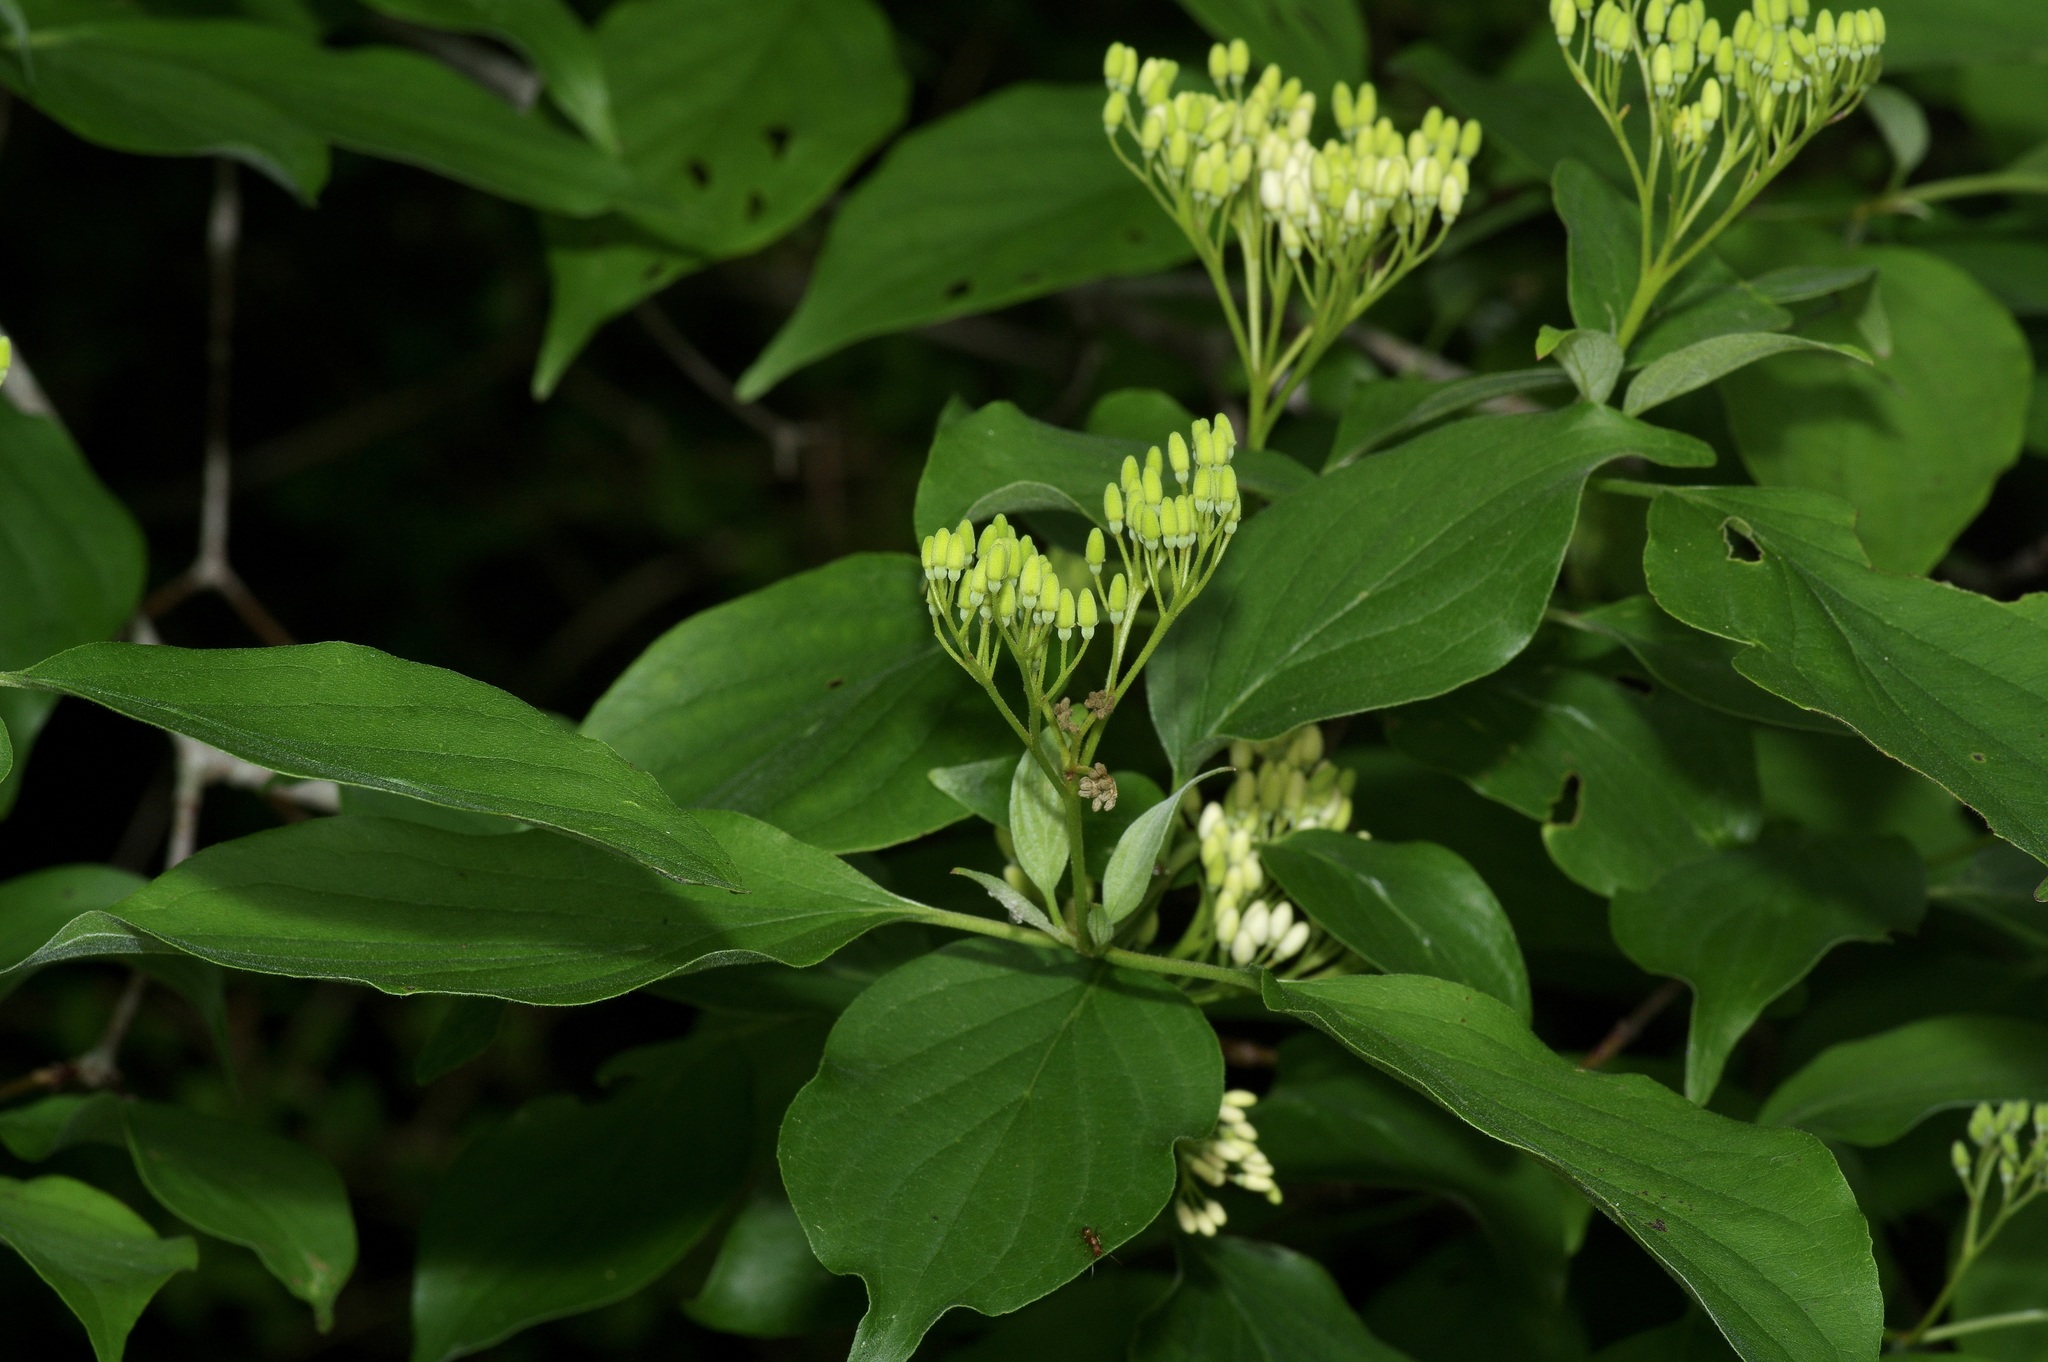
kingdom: Plantae
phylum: Tracheophyta
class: Magnoliopsida
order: Cornales
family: Cornaceae
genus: Cornus
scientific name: Cornus drummondii
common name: Rough-leaf dogwood
